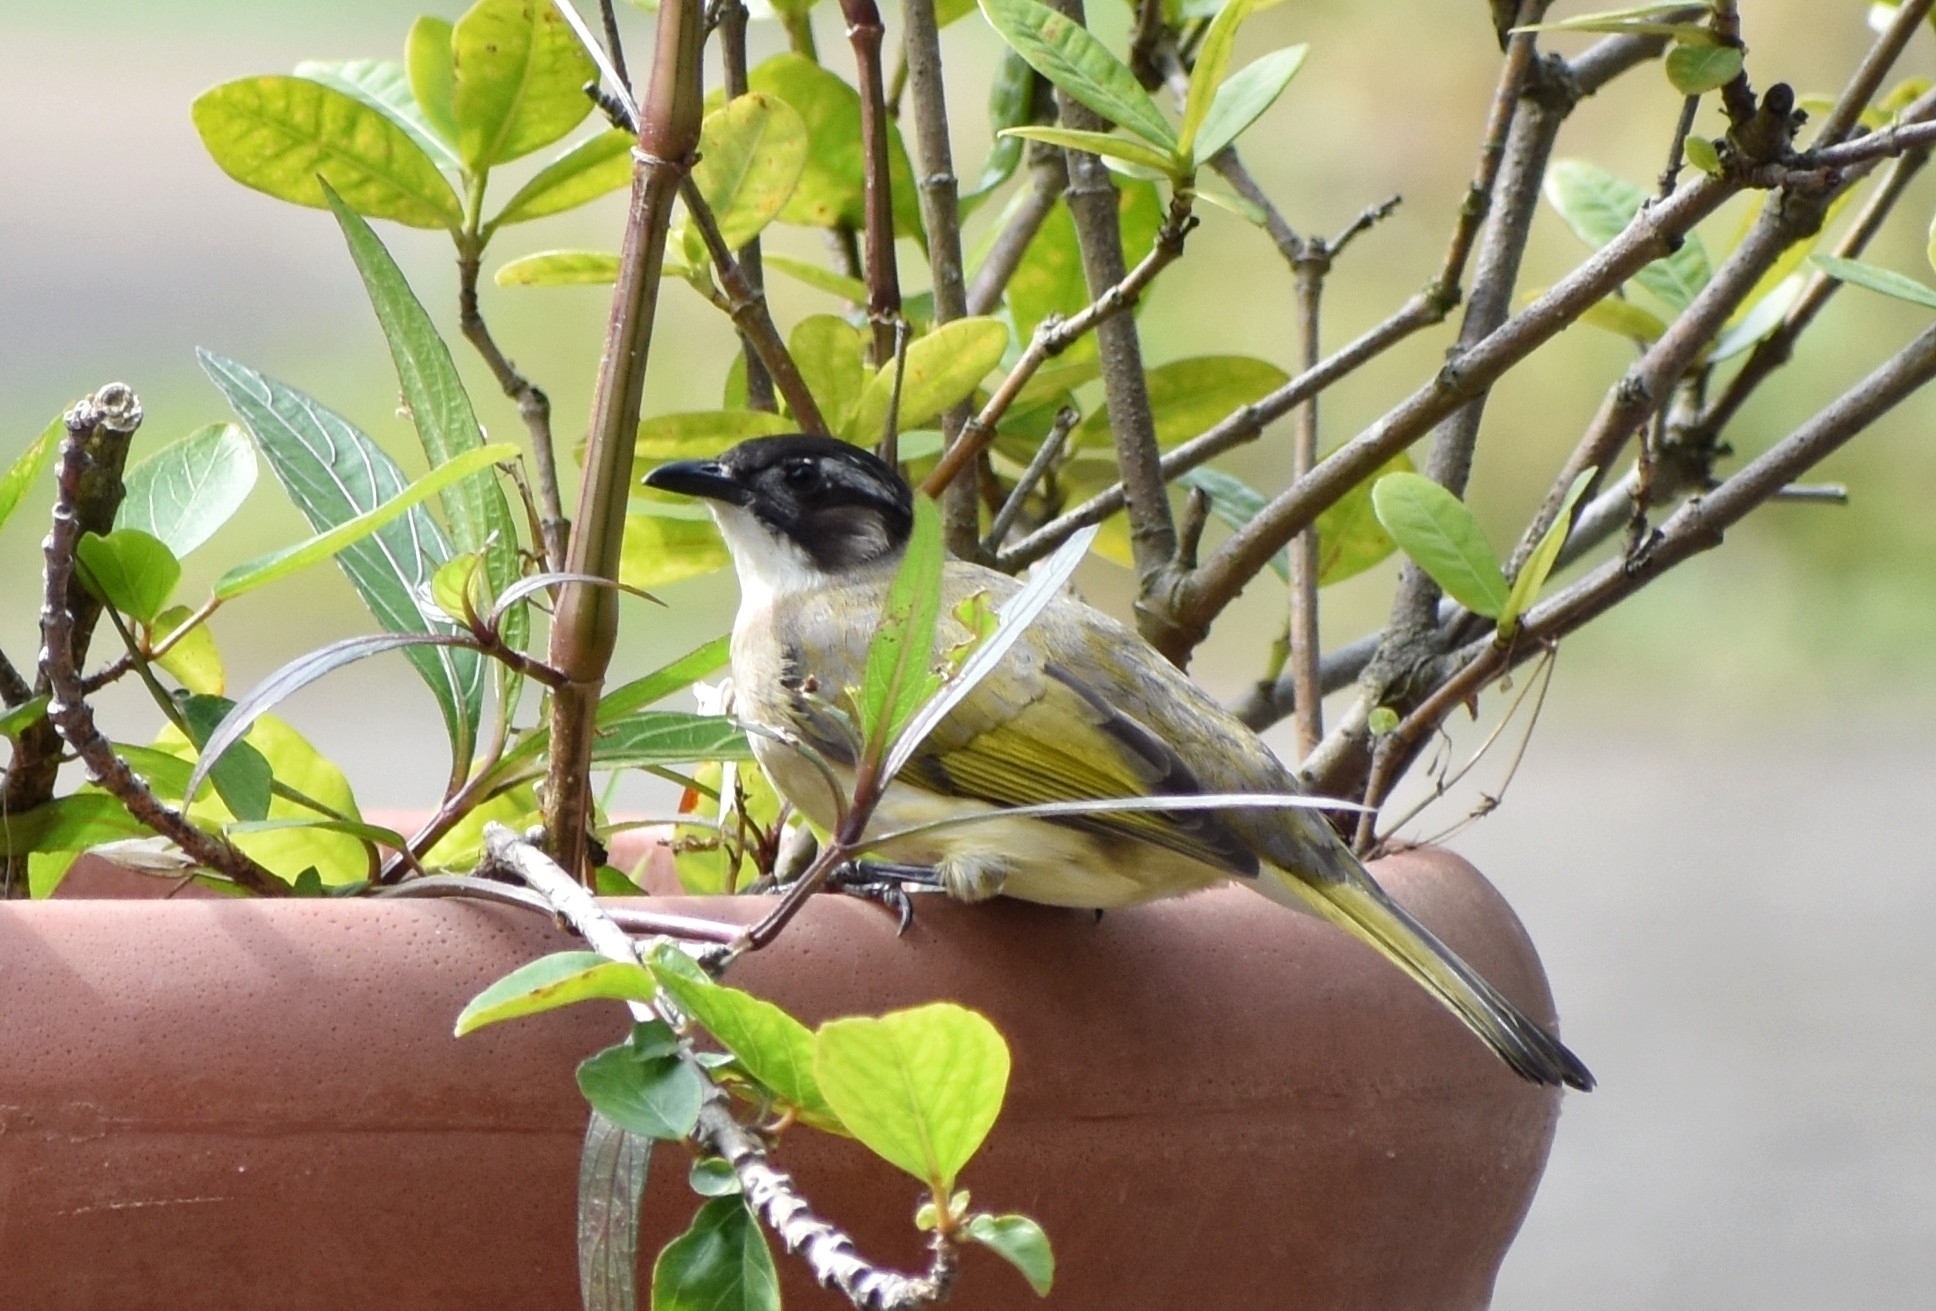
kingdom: Animalia
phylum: Chordata
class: Aves
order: Passeriformes
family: Pycnonotidae
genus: Pycnonotus
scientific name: Pycnonotus sinensis
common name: Light-vented bulbul
